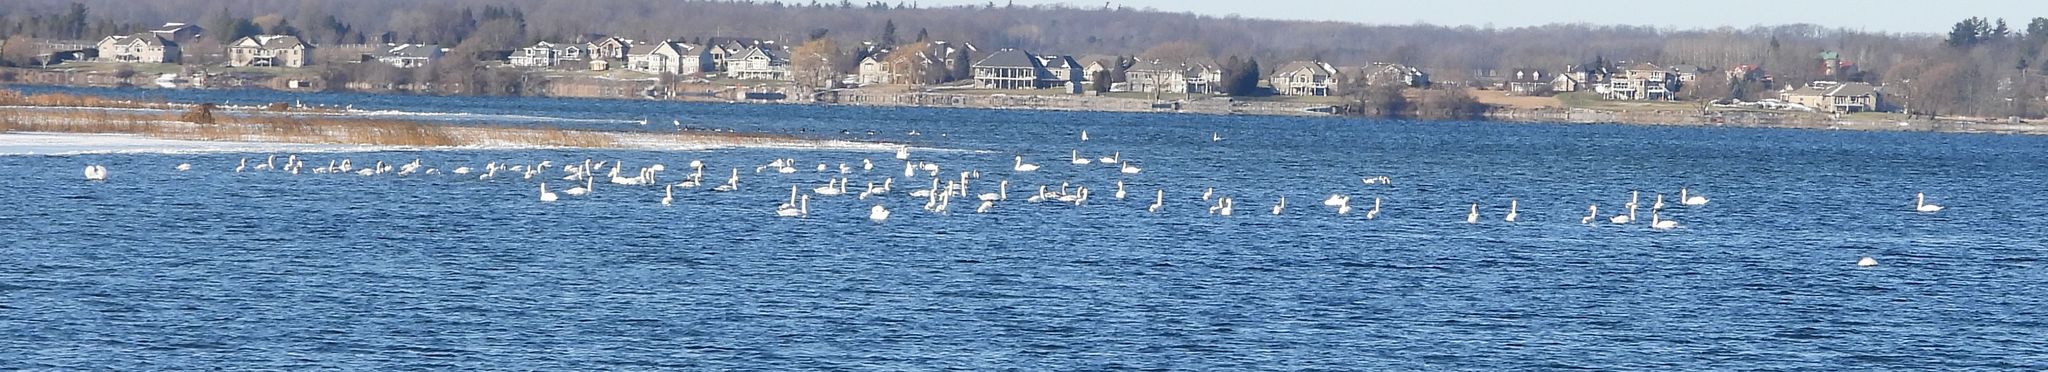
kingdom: Animalia
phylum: Chordata
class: Aves
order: Anseriformes
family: Anatidae
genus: Cygnus
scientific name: Cygnus olor
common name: Mute swan
